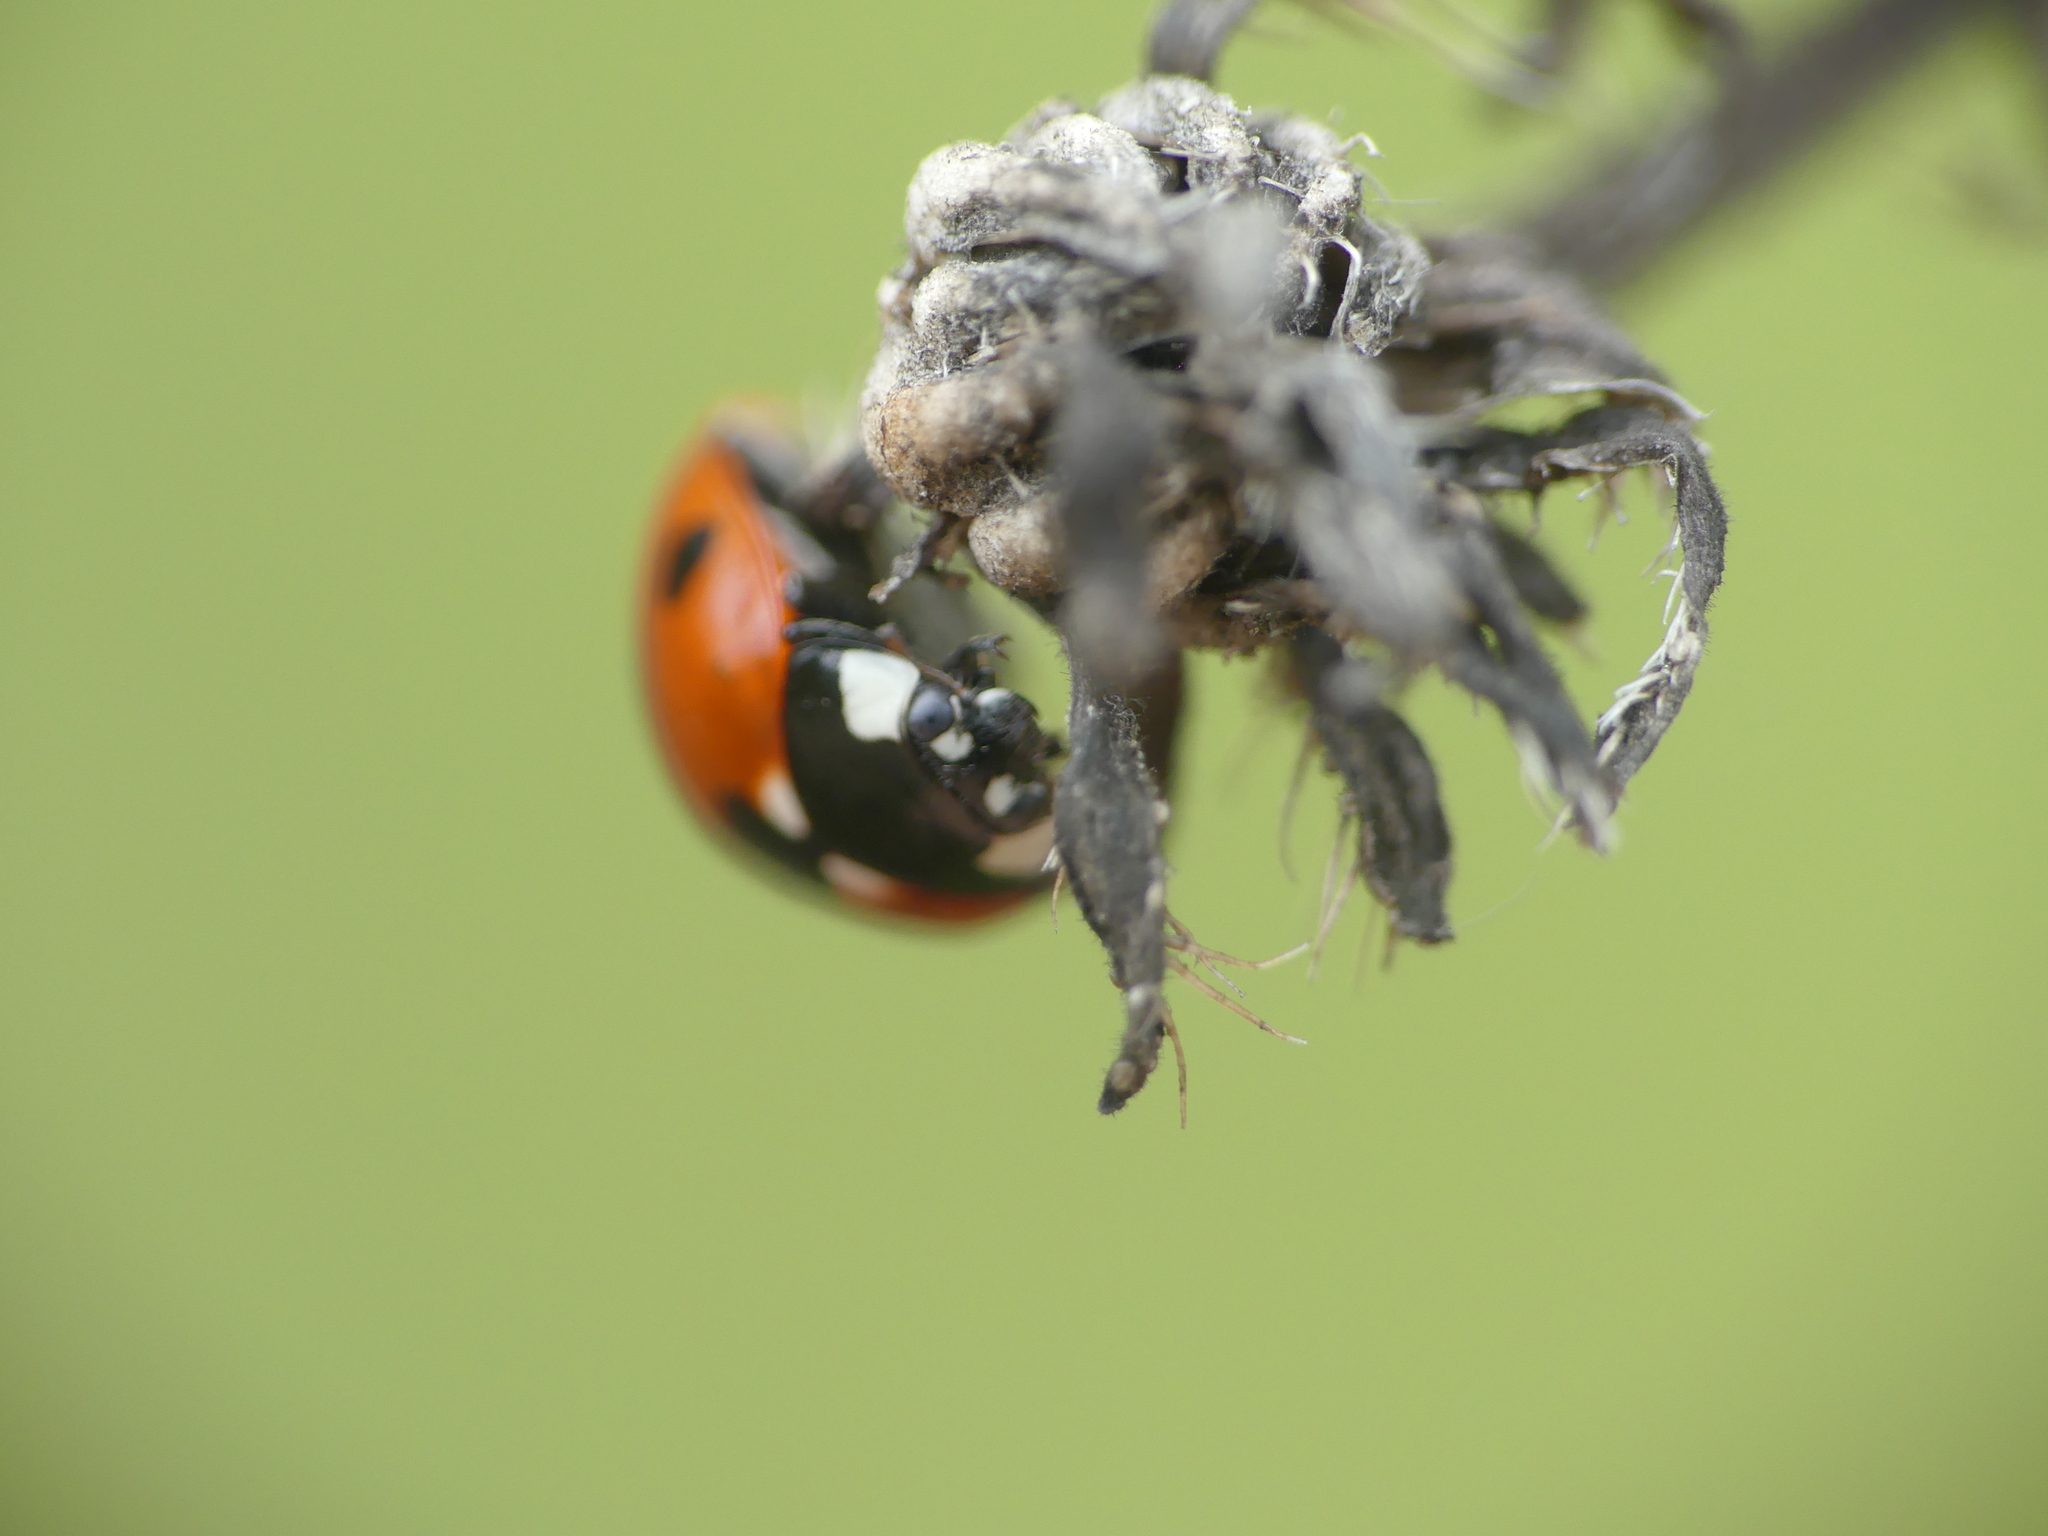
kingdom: Animalia
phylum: Arthropoda
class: Insecta
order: Coleoptera
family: Coccinellidae
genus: Coccinella
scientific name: Coccinella septempunctata
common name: Sevenspotted lady beetle
